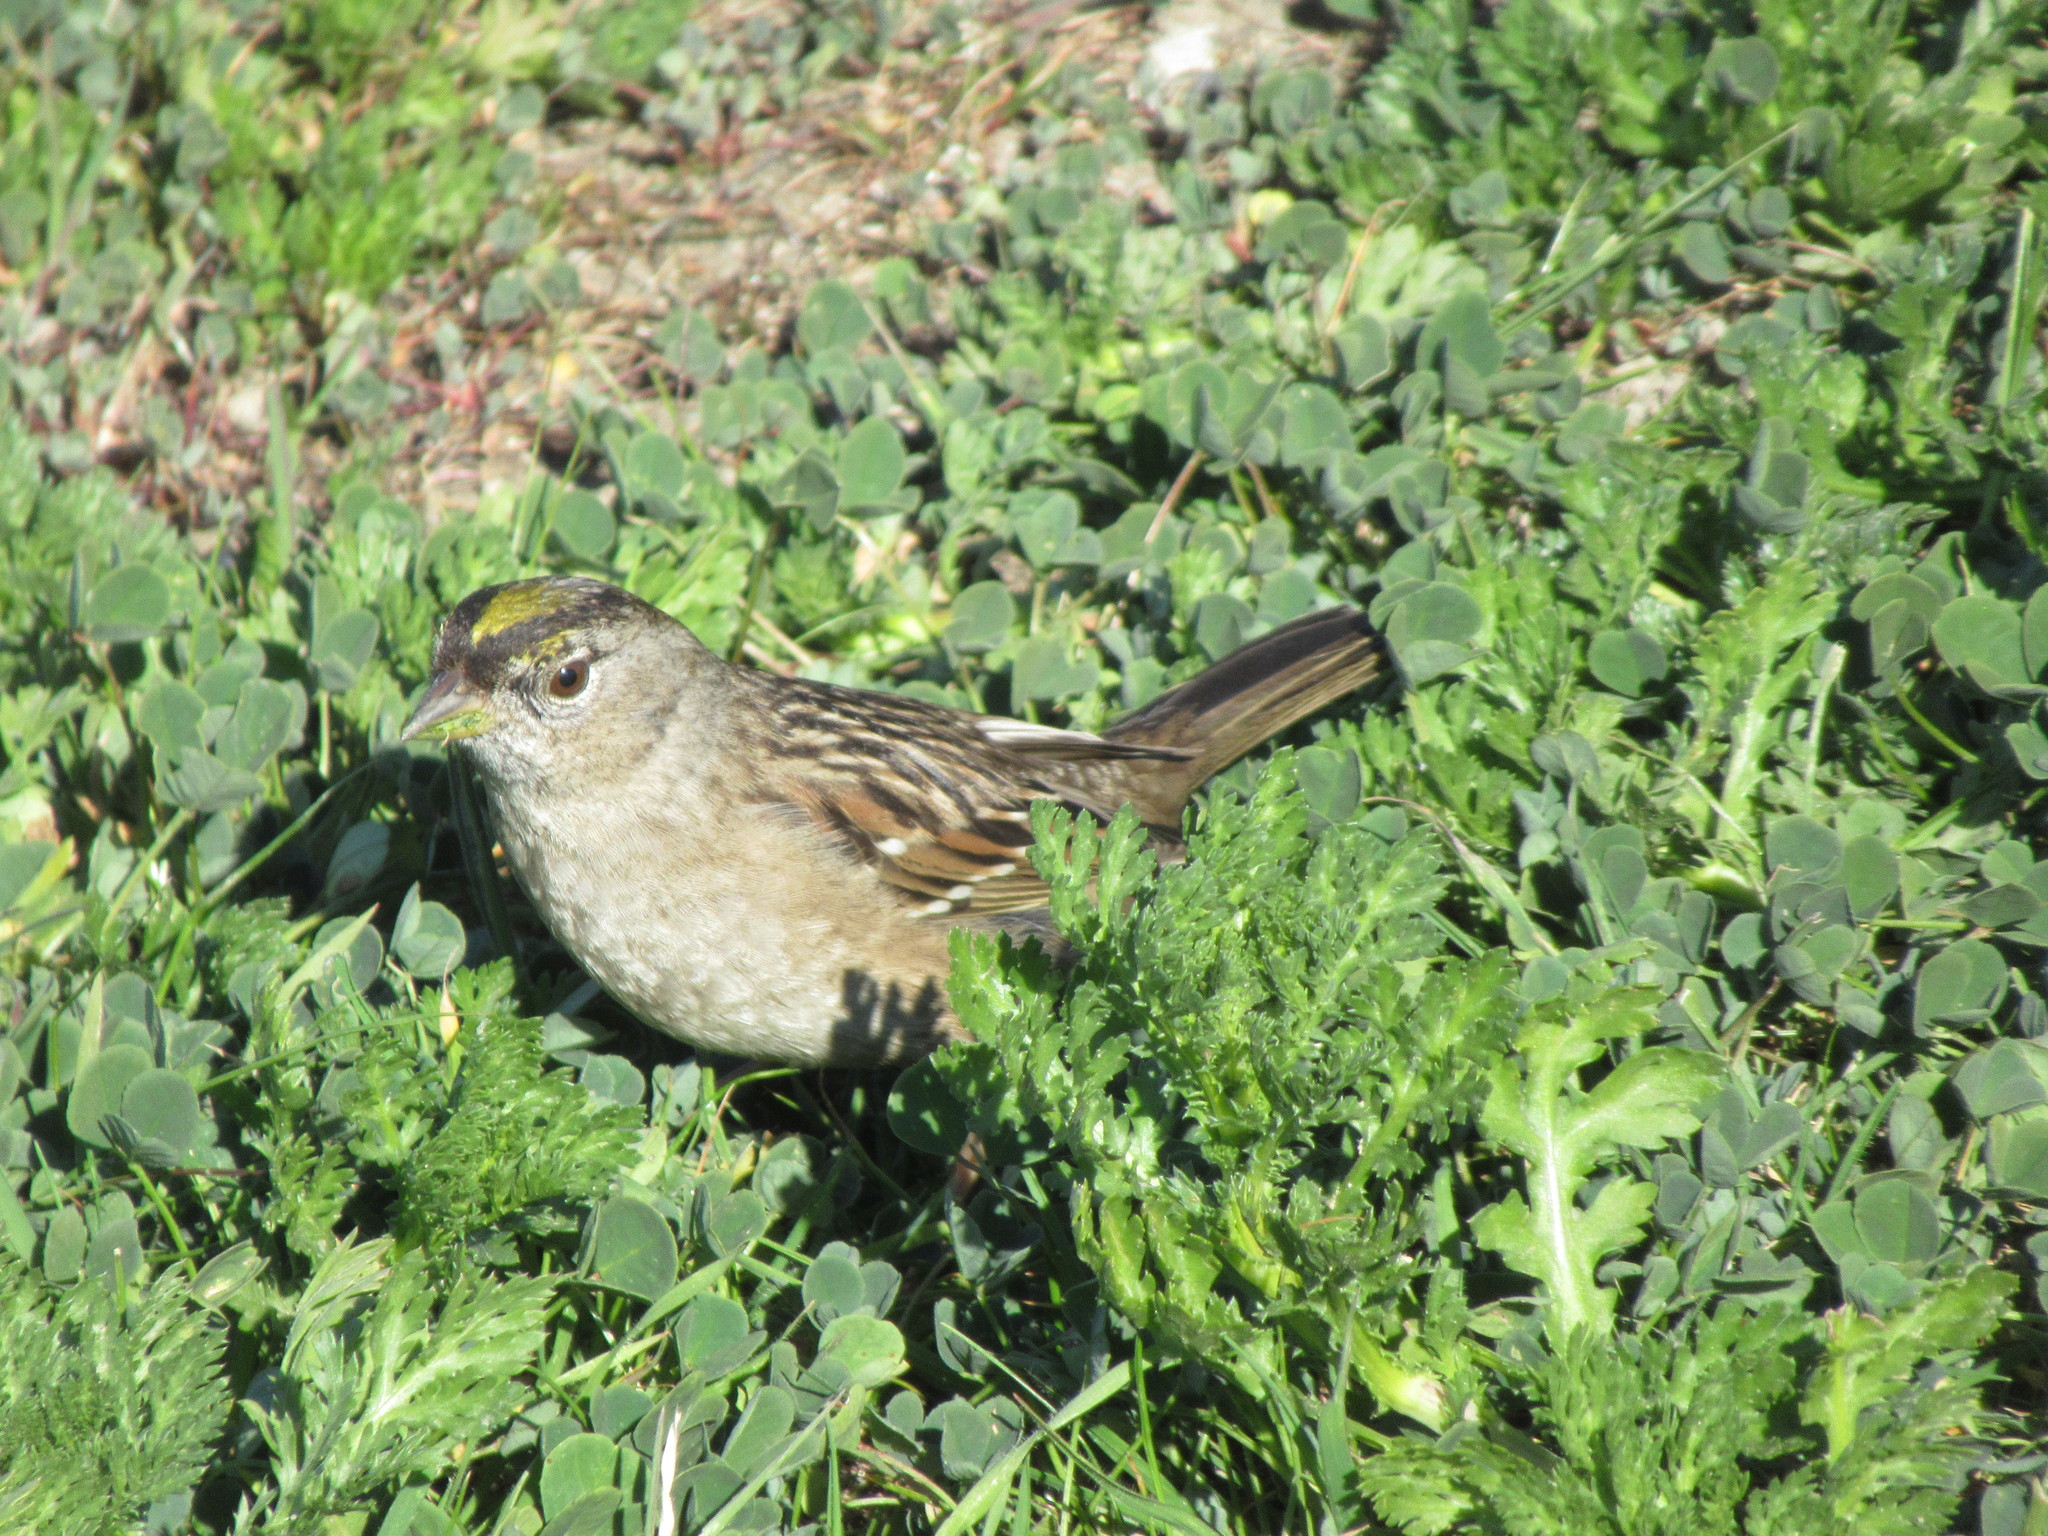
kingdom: Animalia
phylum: Chordata
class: Aves
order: Passeriformes
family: Passerellidae
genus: Zonotrichia
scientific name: Zonotrichia atricapilla
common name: Golden-crowned sparrow
